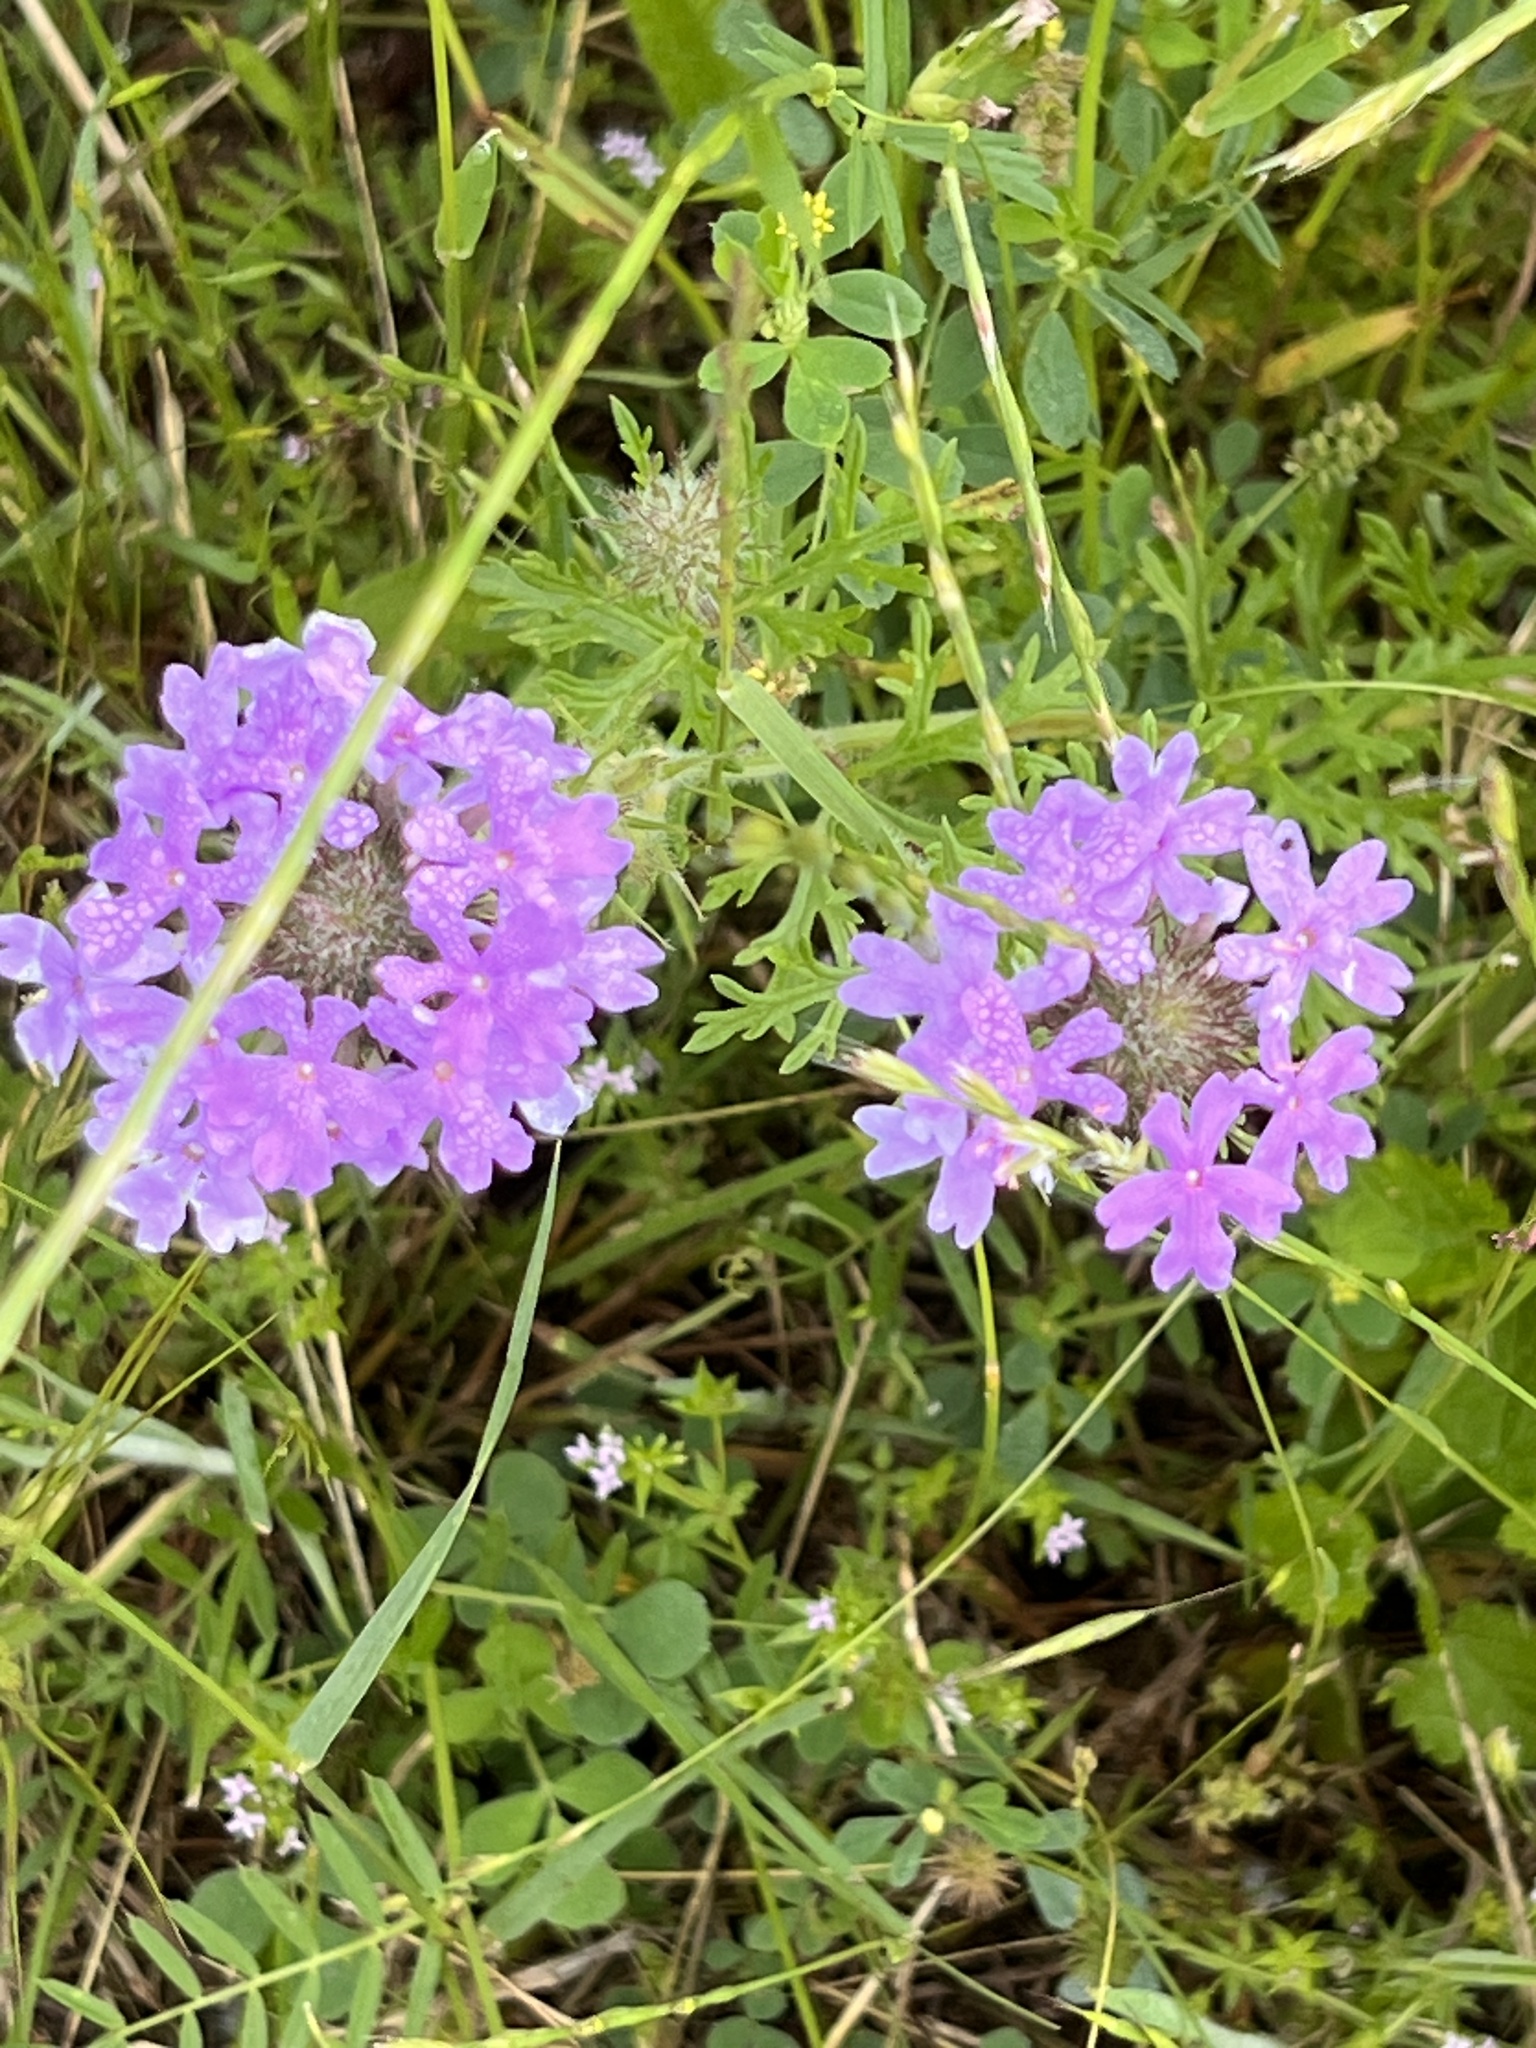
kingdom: Plantae
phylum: Tracheophyta
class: Magnoliopsida
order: Lamiales
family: Verbenaceae
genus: Verbena
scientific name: Verbena bipinnatifida
